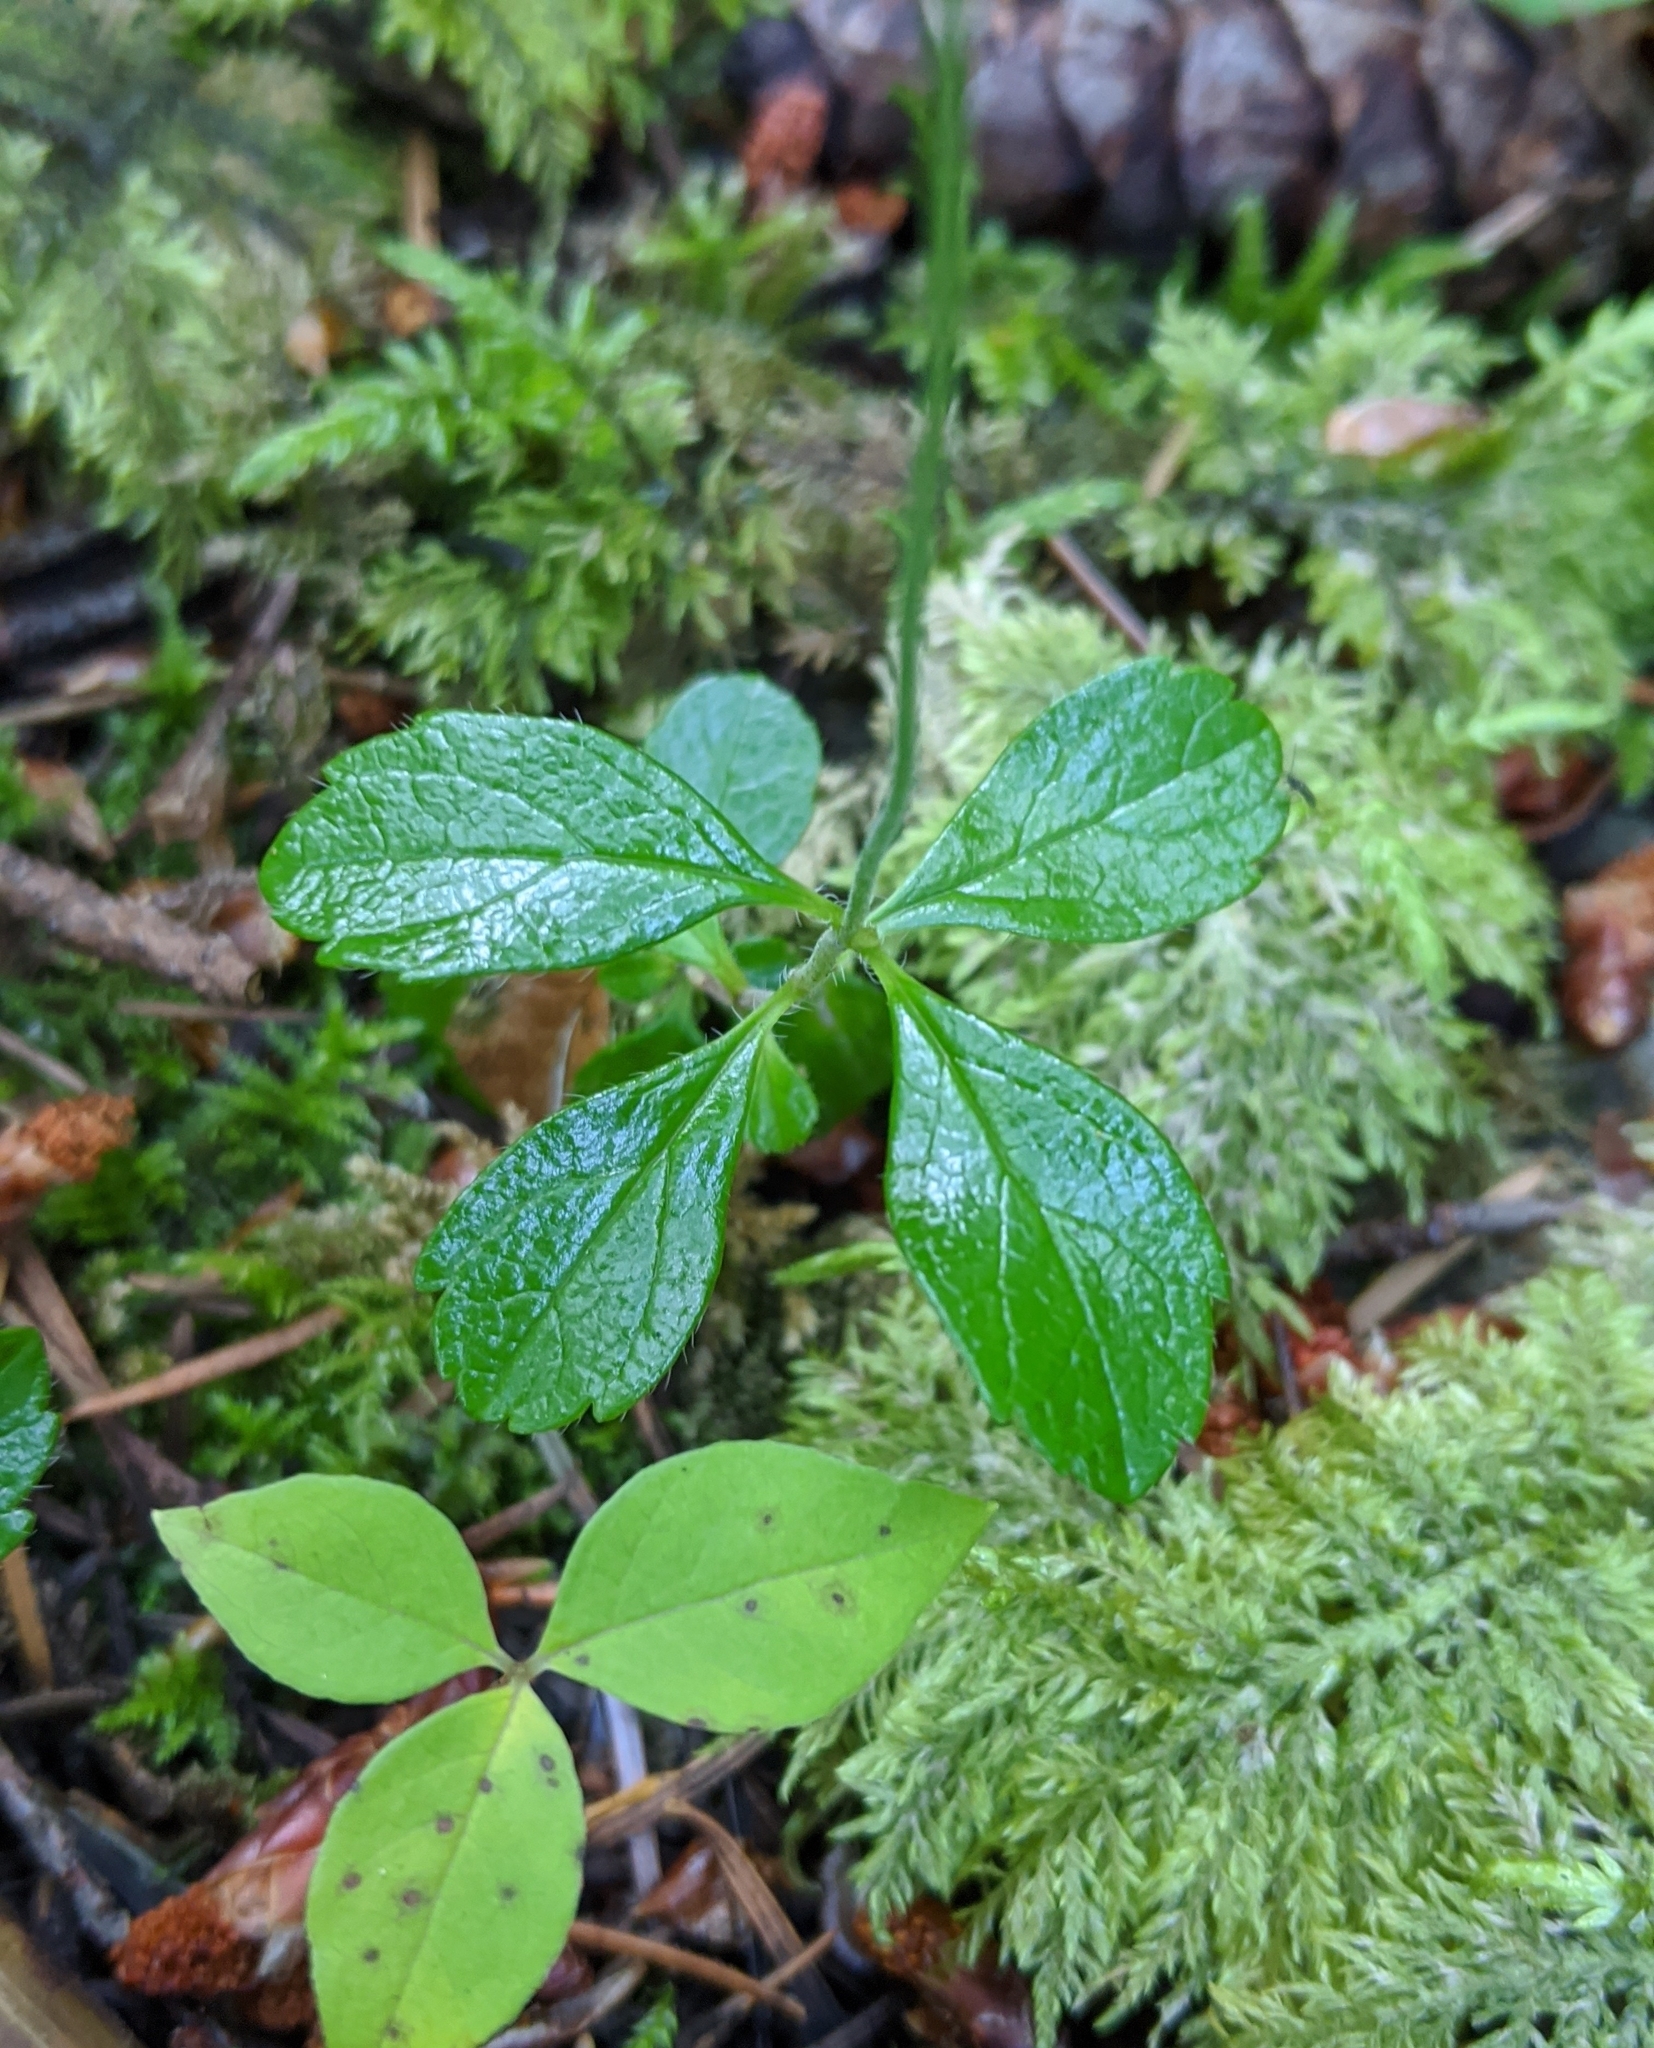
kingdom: Plantae
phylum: Tracheophyta
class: Magnoliopsida
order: Dipsacales
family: Caprifoliaceae
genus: Linnaea
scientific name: Linnaea borealis
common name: Twinflower
